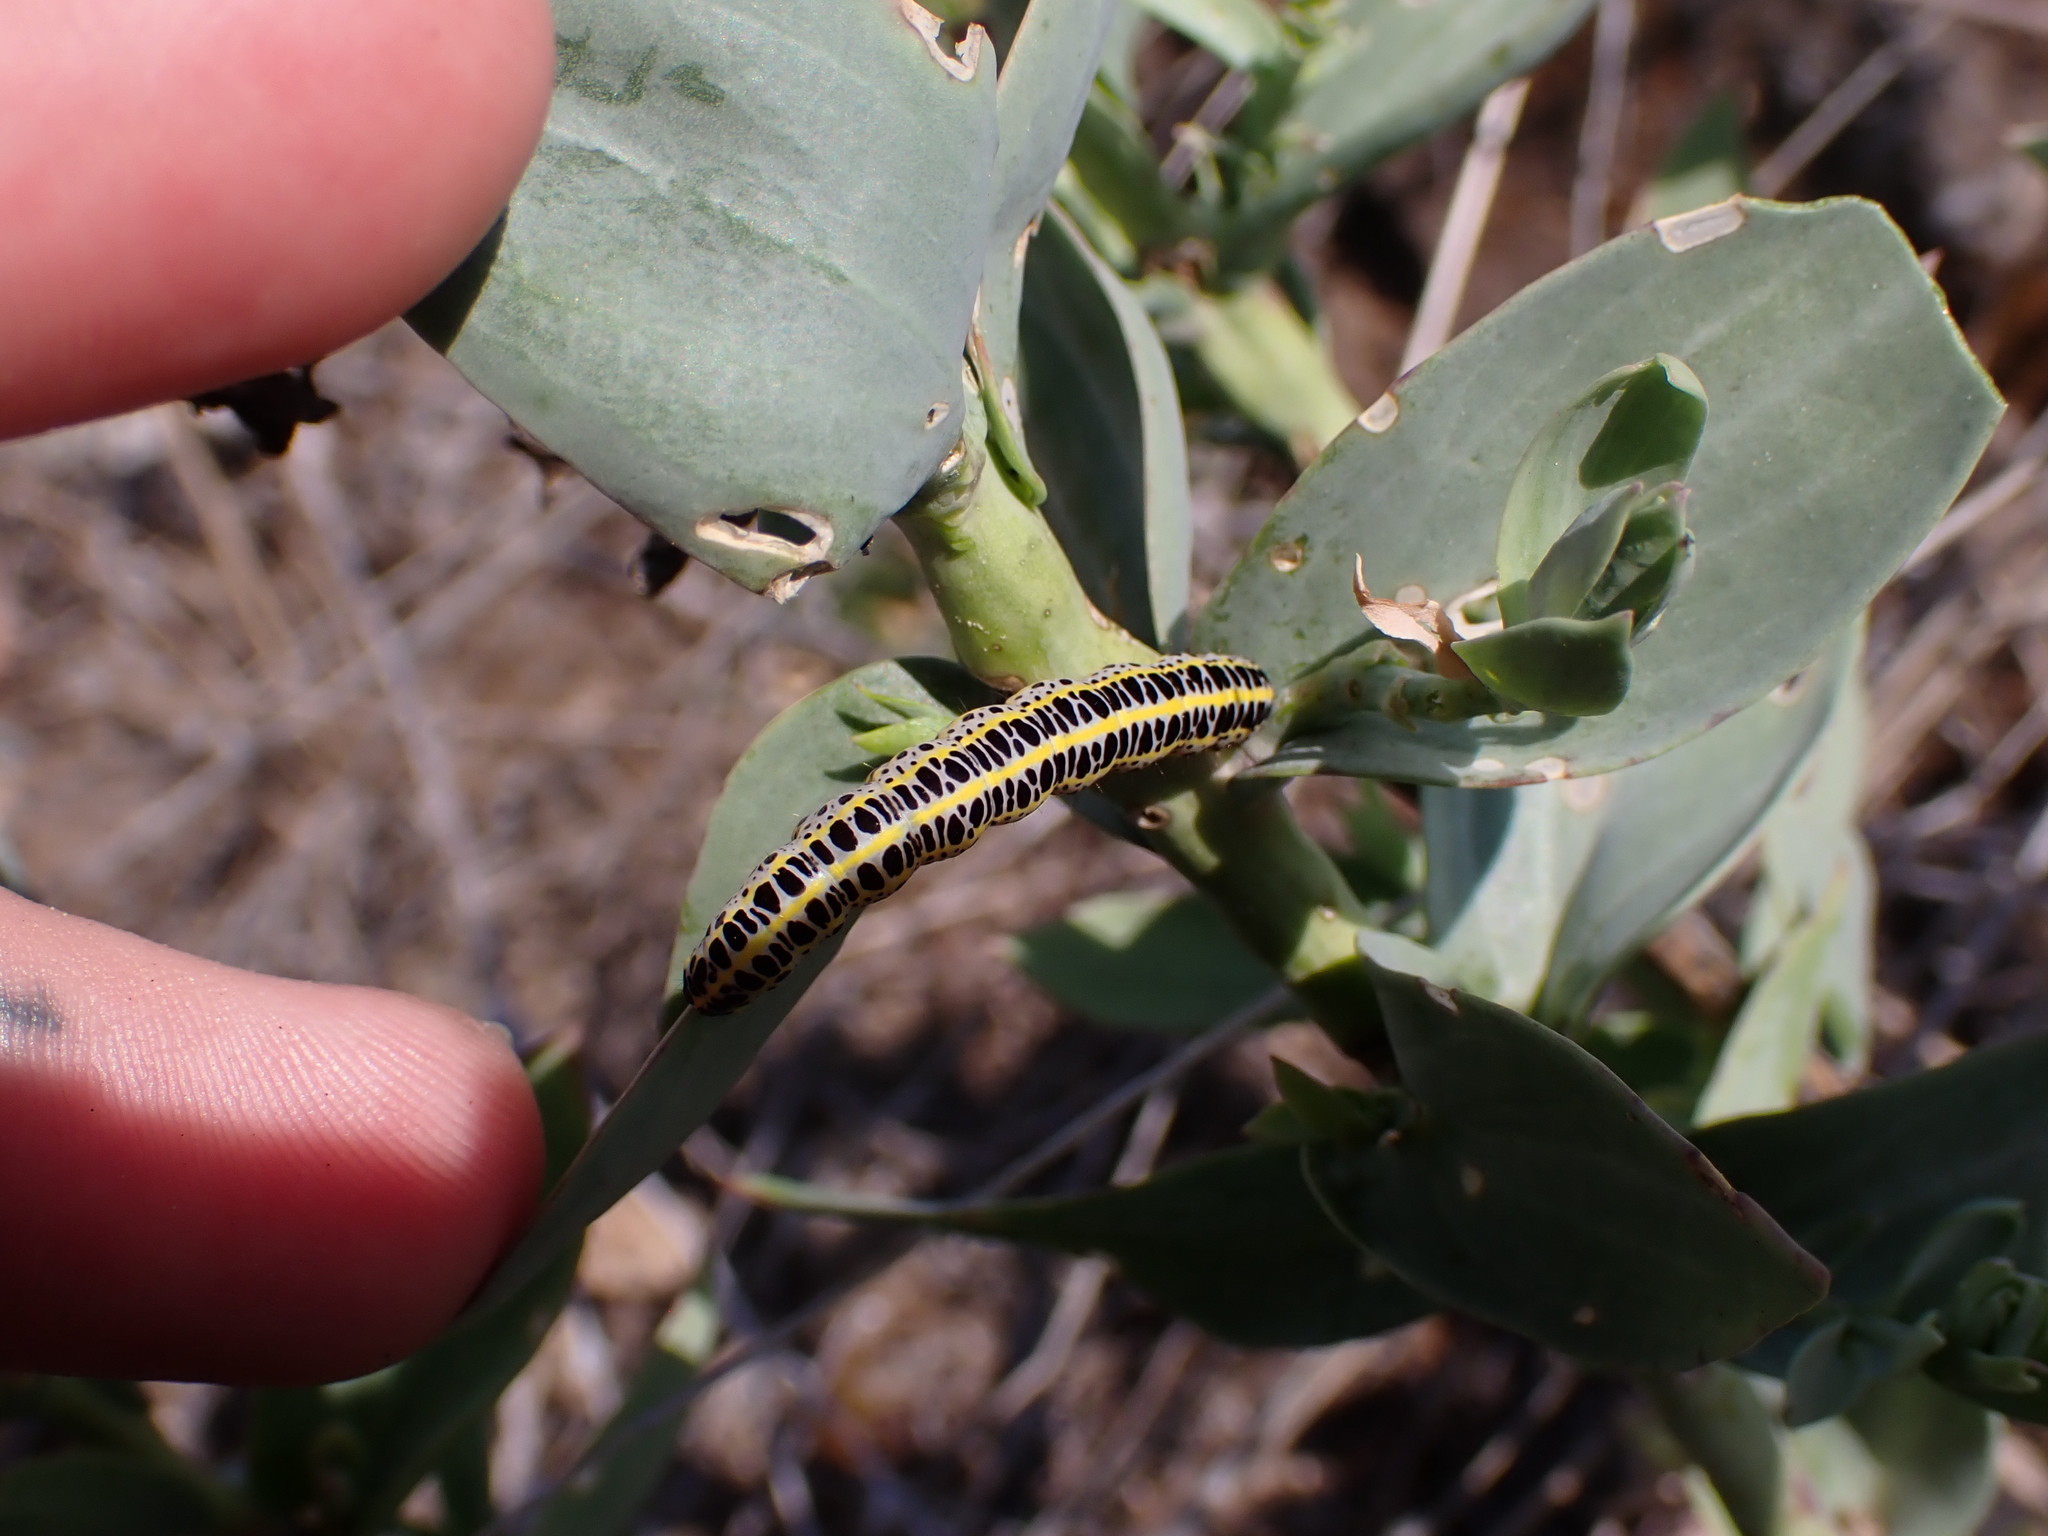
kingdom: Animalia
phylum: Arthropoda
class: Insecta
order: Lepidoptera
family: Noctuidae
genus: Calophasia
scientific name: Calophasia lunula
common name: Toadflax brocade
